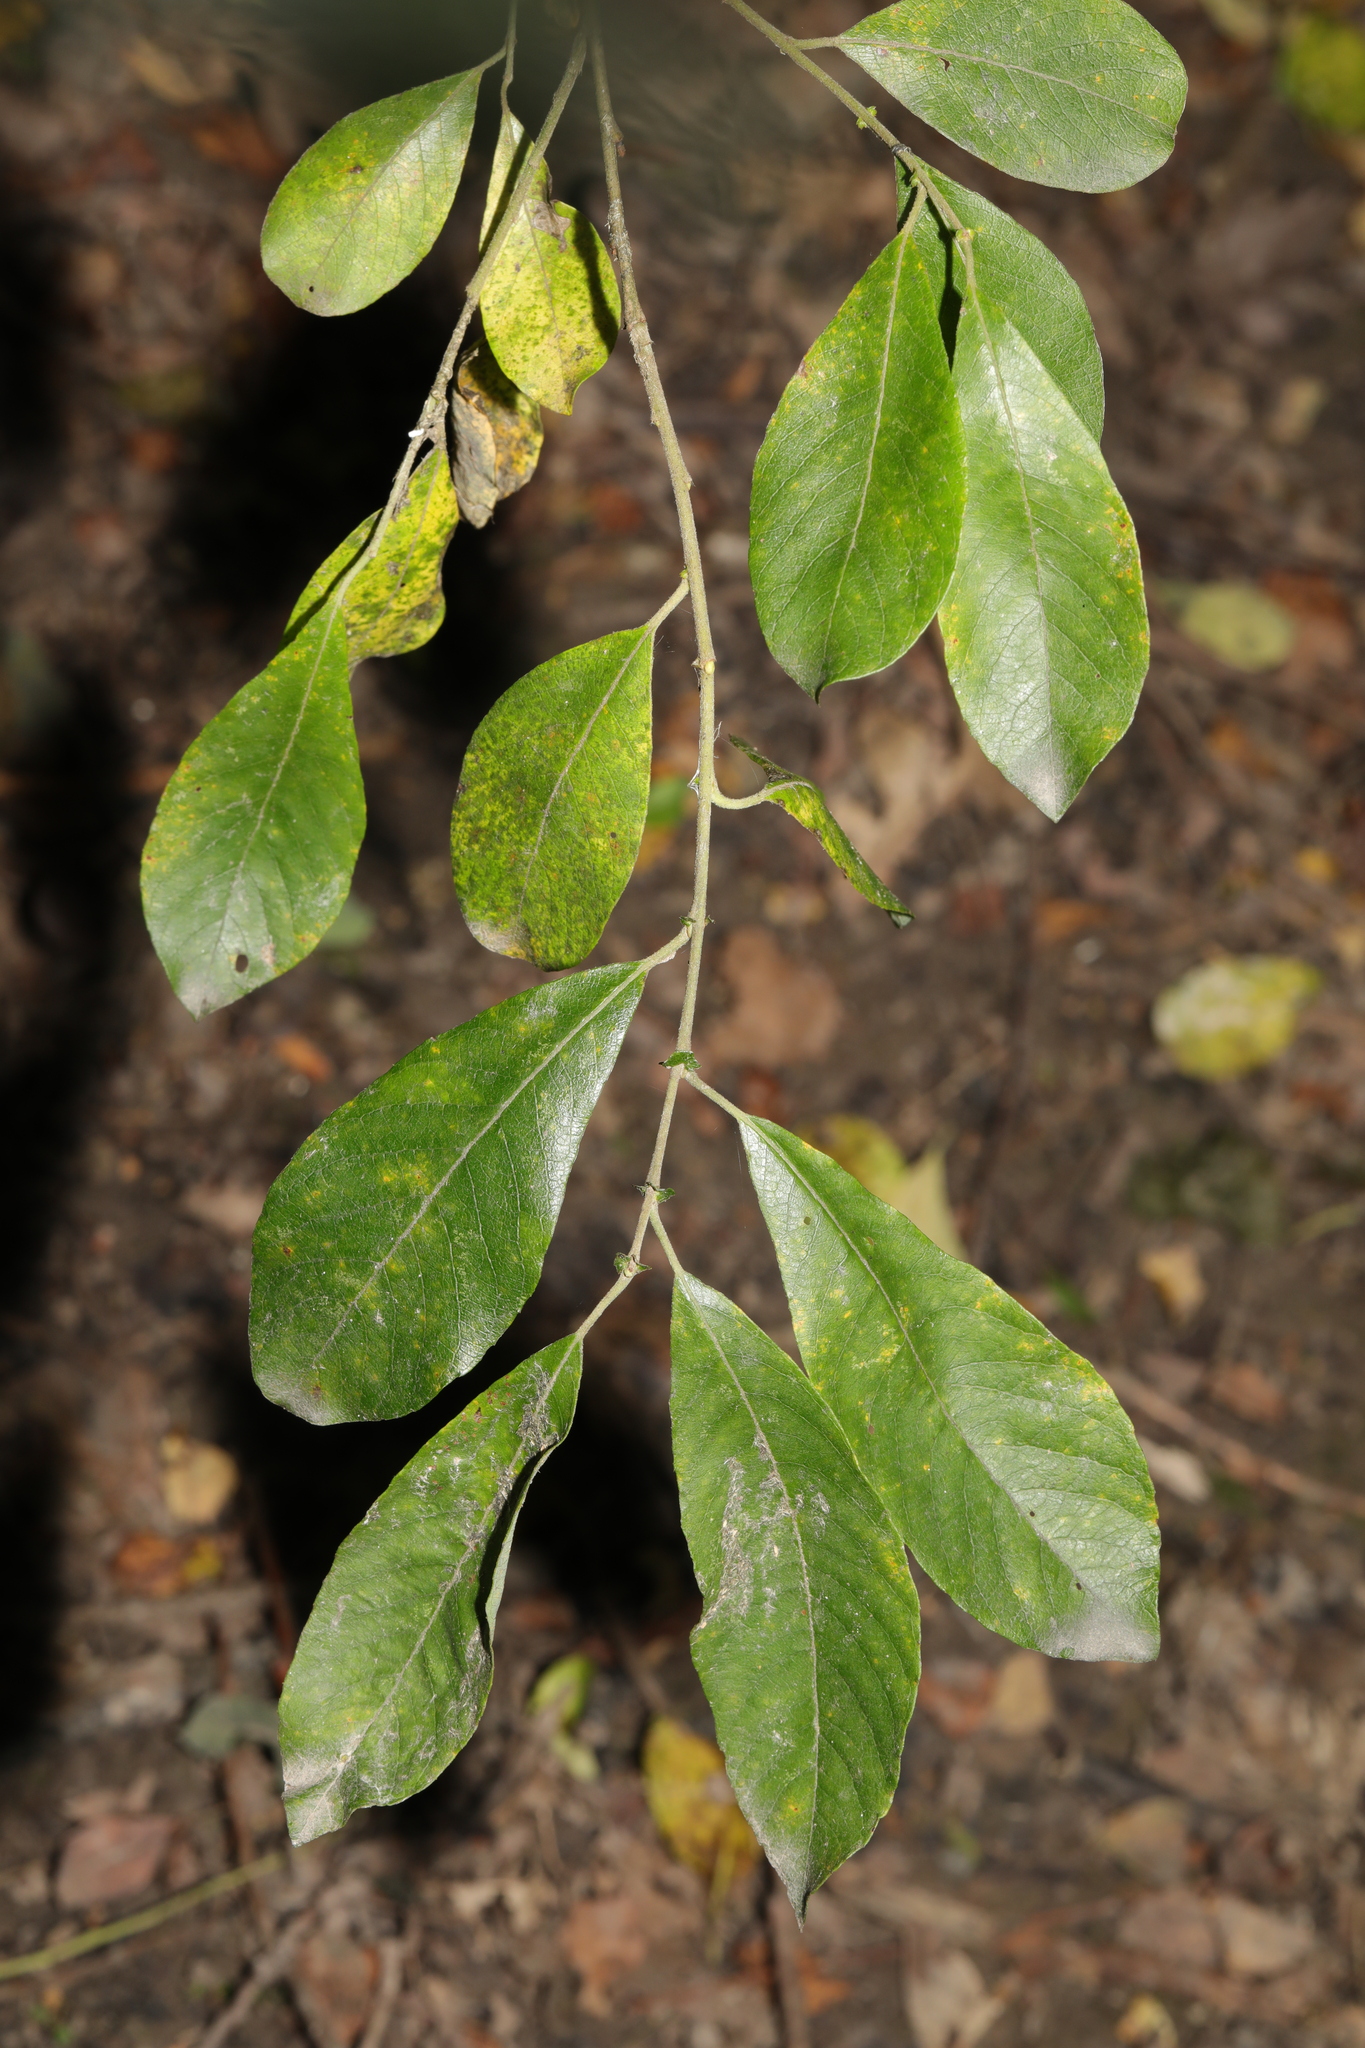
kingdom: Plantae
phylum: Tracheophyta
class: Magnoliopsida
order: Malpighiales
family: Salicaceae
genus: Salix
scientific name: Salix atrocinerea
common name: Rusty willow
